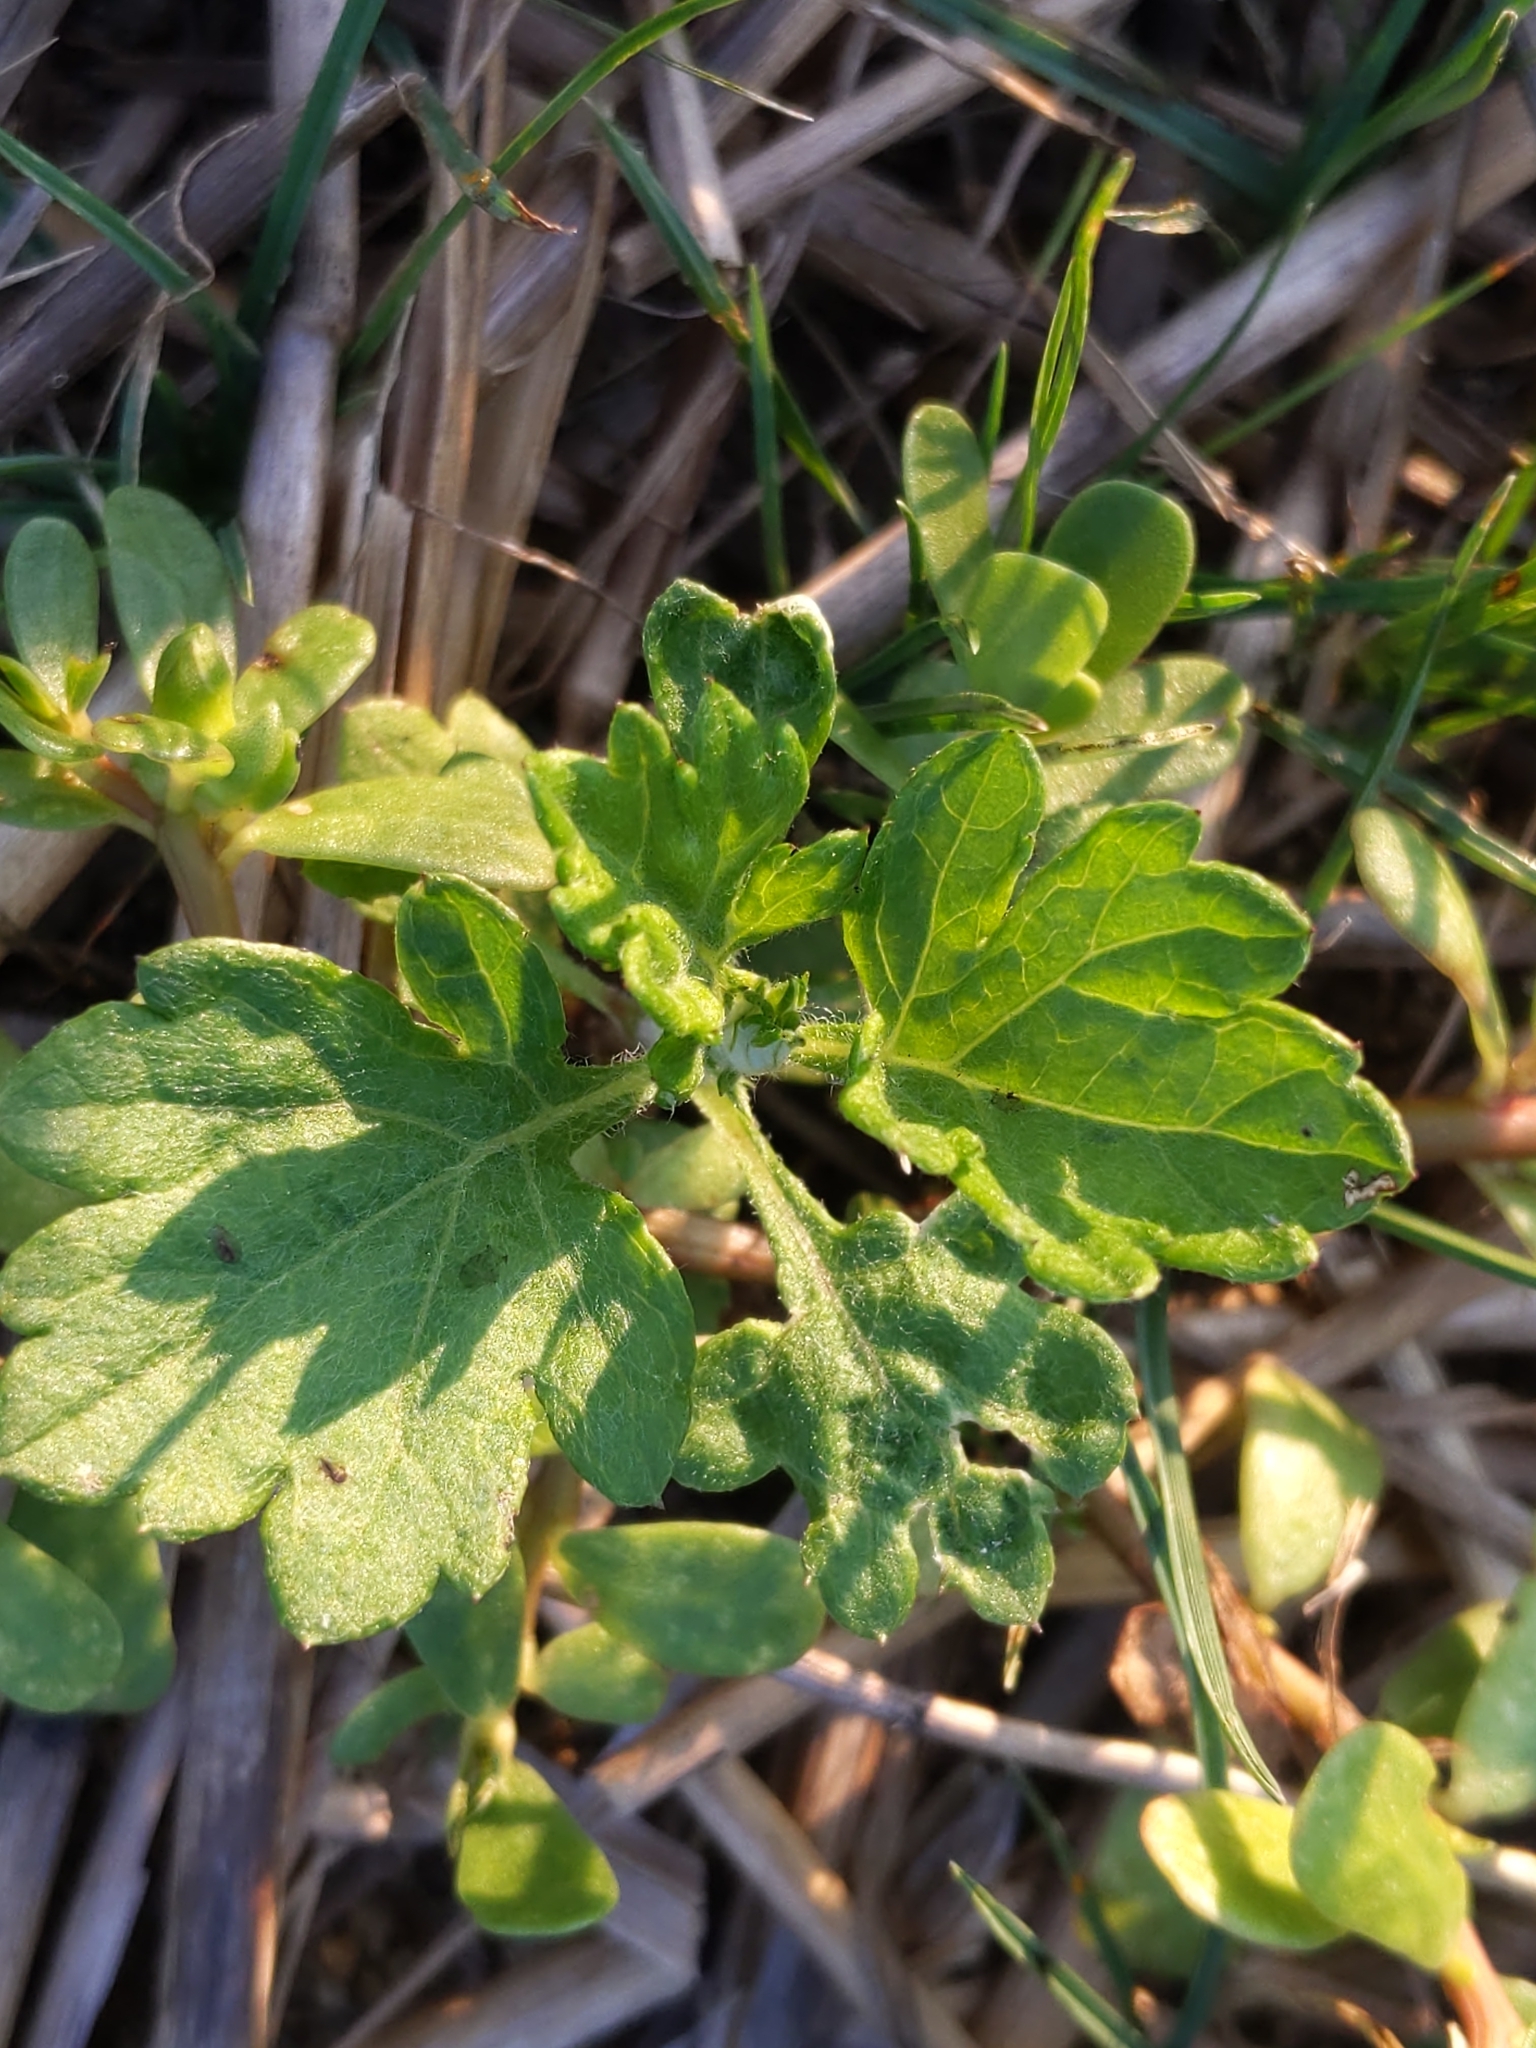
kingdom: Plantae
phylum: Tracheophyta
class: Magnoliopsida
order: Asterales
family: Asteraceae
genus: Artemisia
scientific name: Artemisia vulgaris
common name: Mugwort
